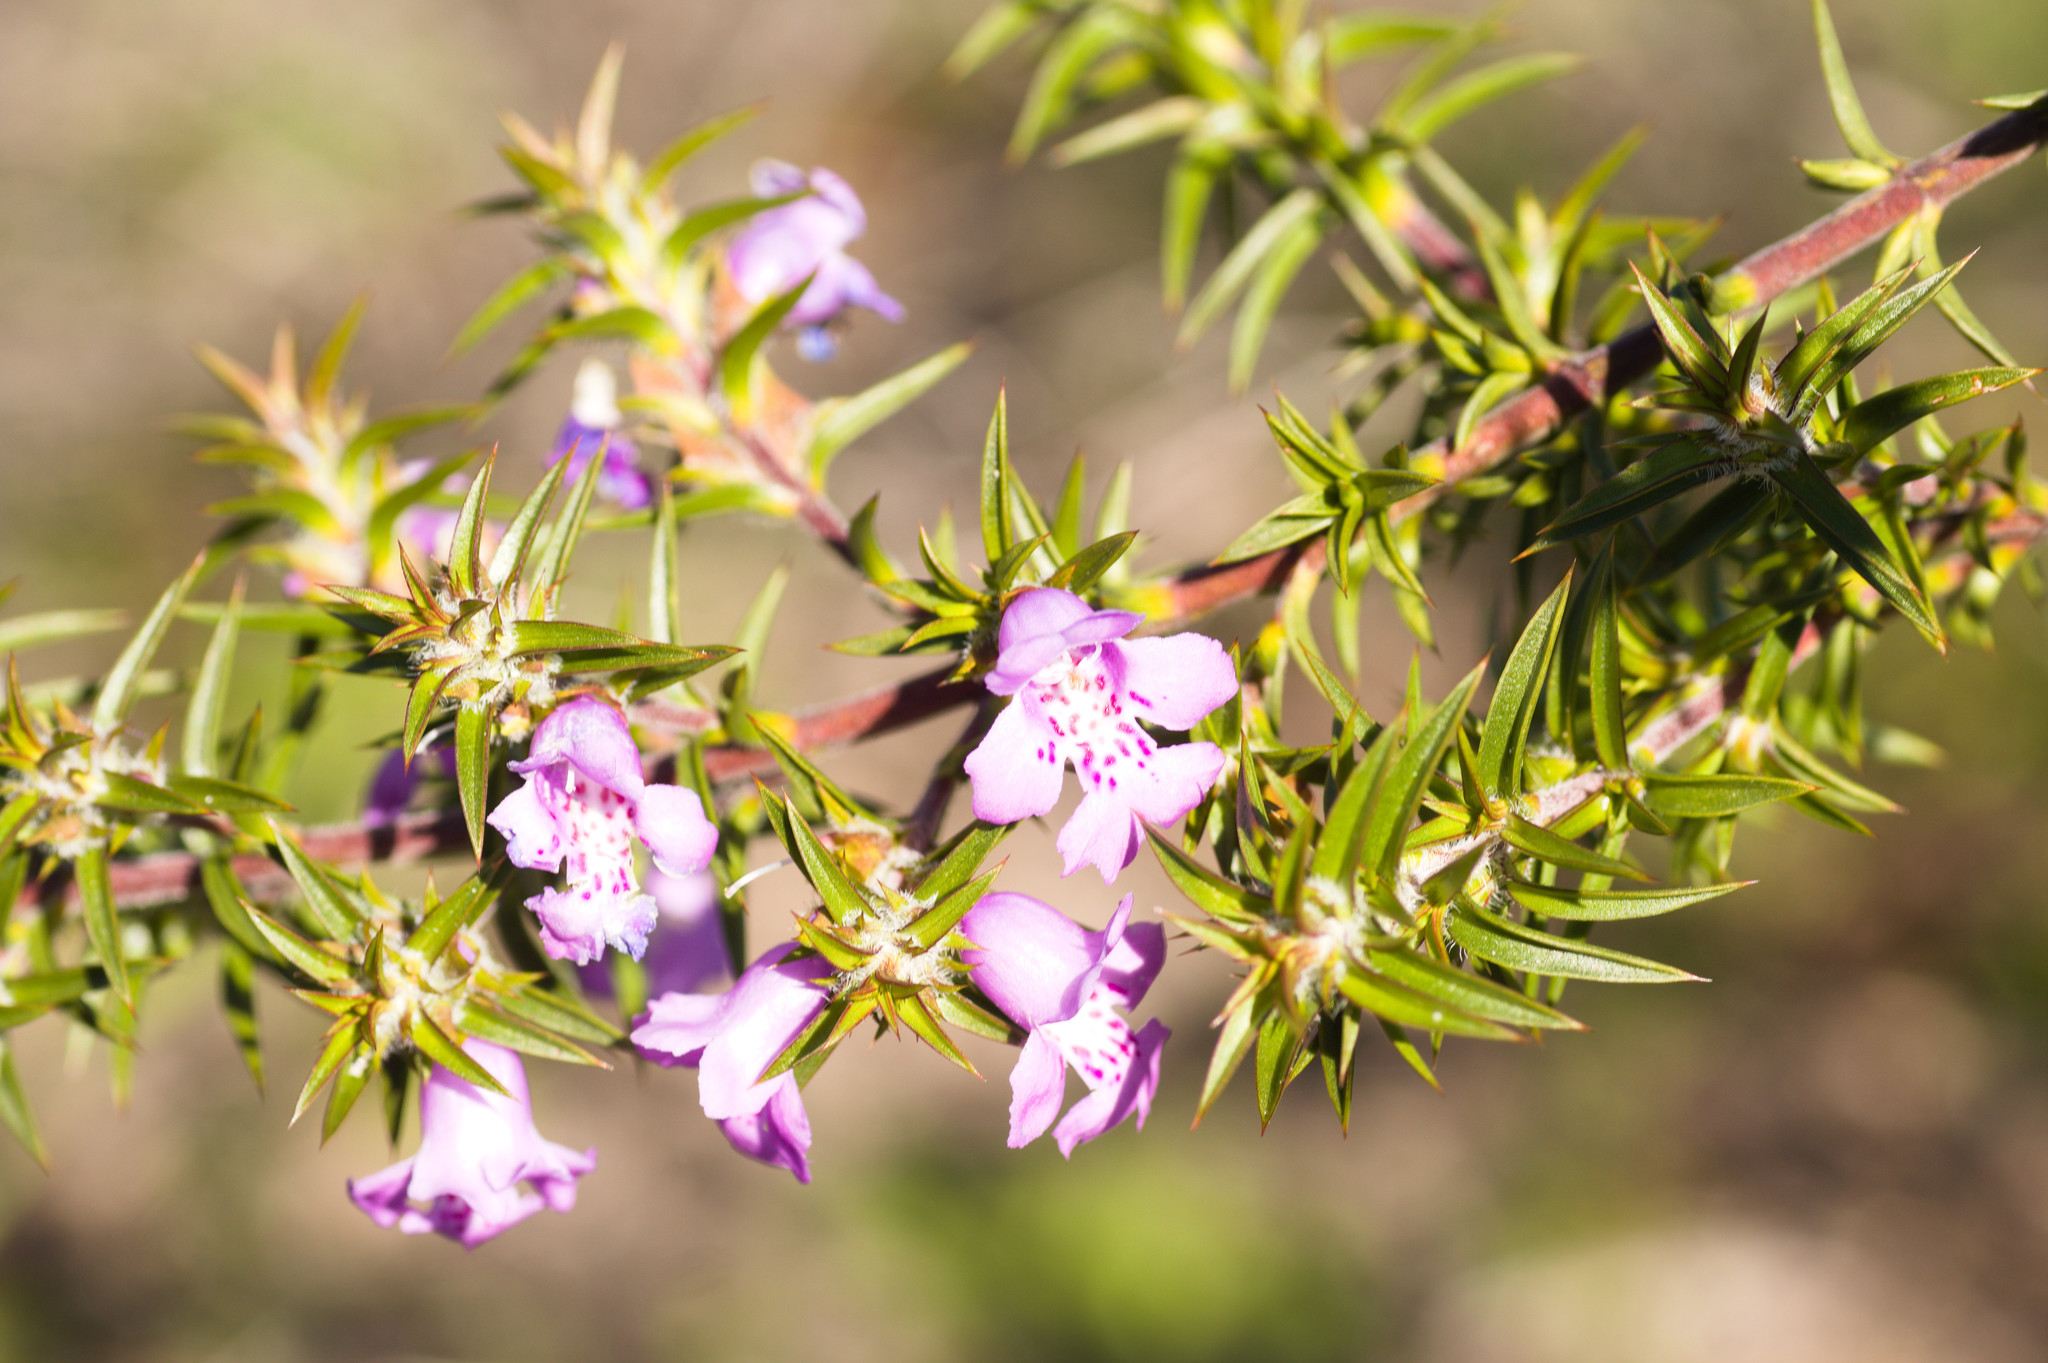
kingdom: Plantae
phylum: Tracheophyta
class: Magnoliopsida
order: Lamiales
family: Lamiaceae
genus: Hemiandra
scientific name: Hemiandra pungens
